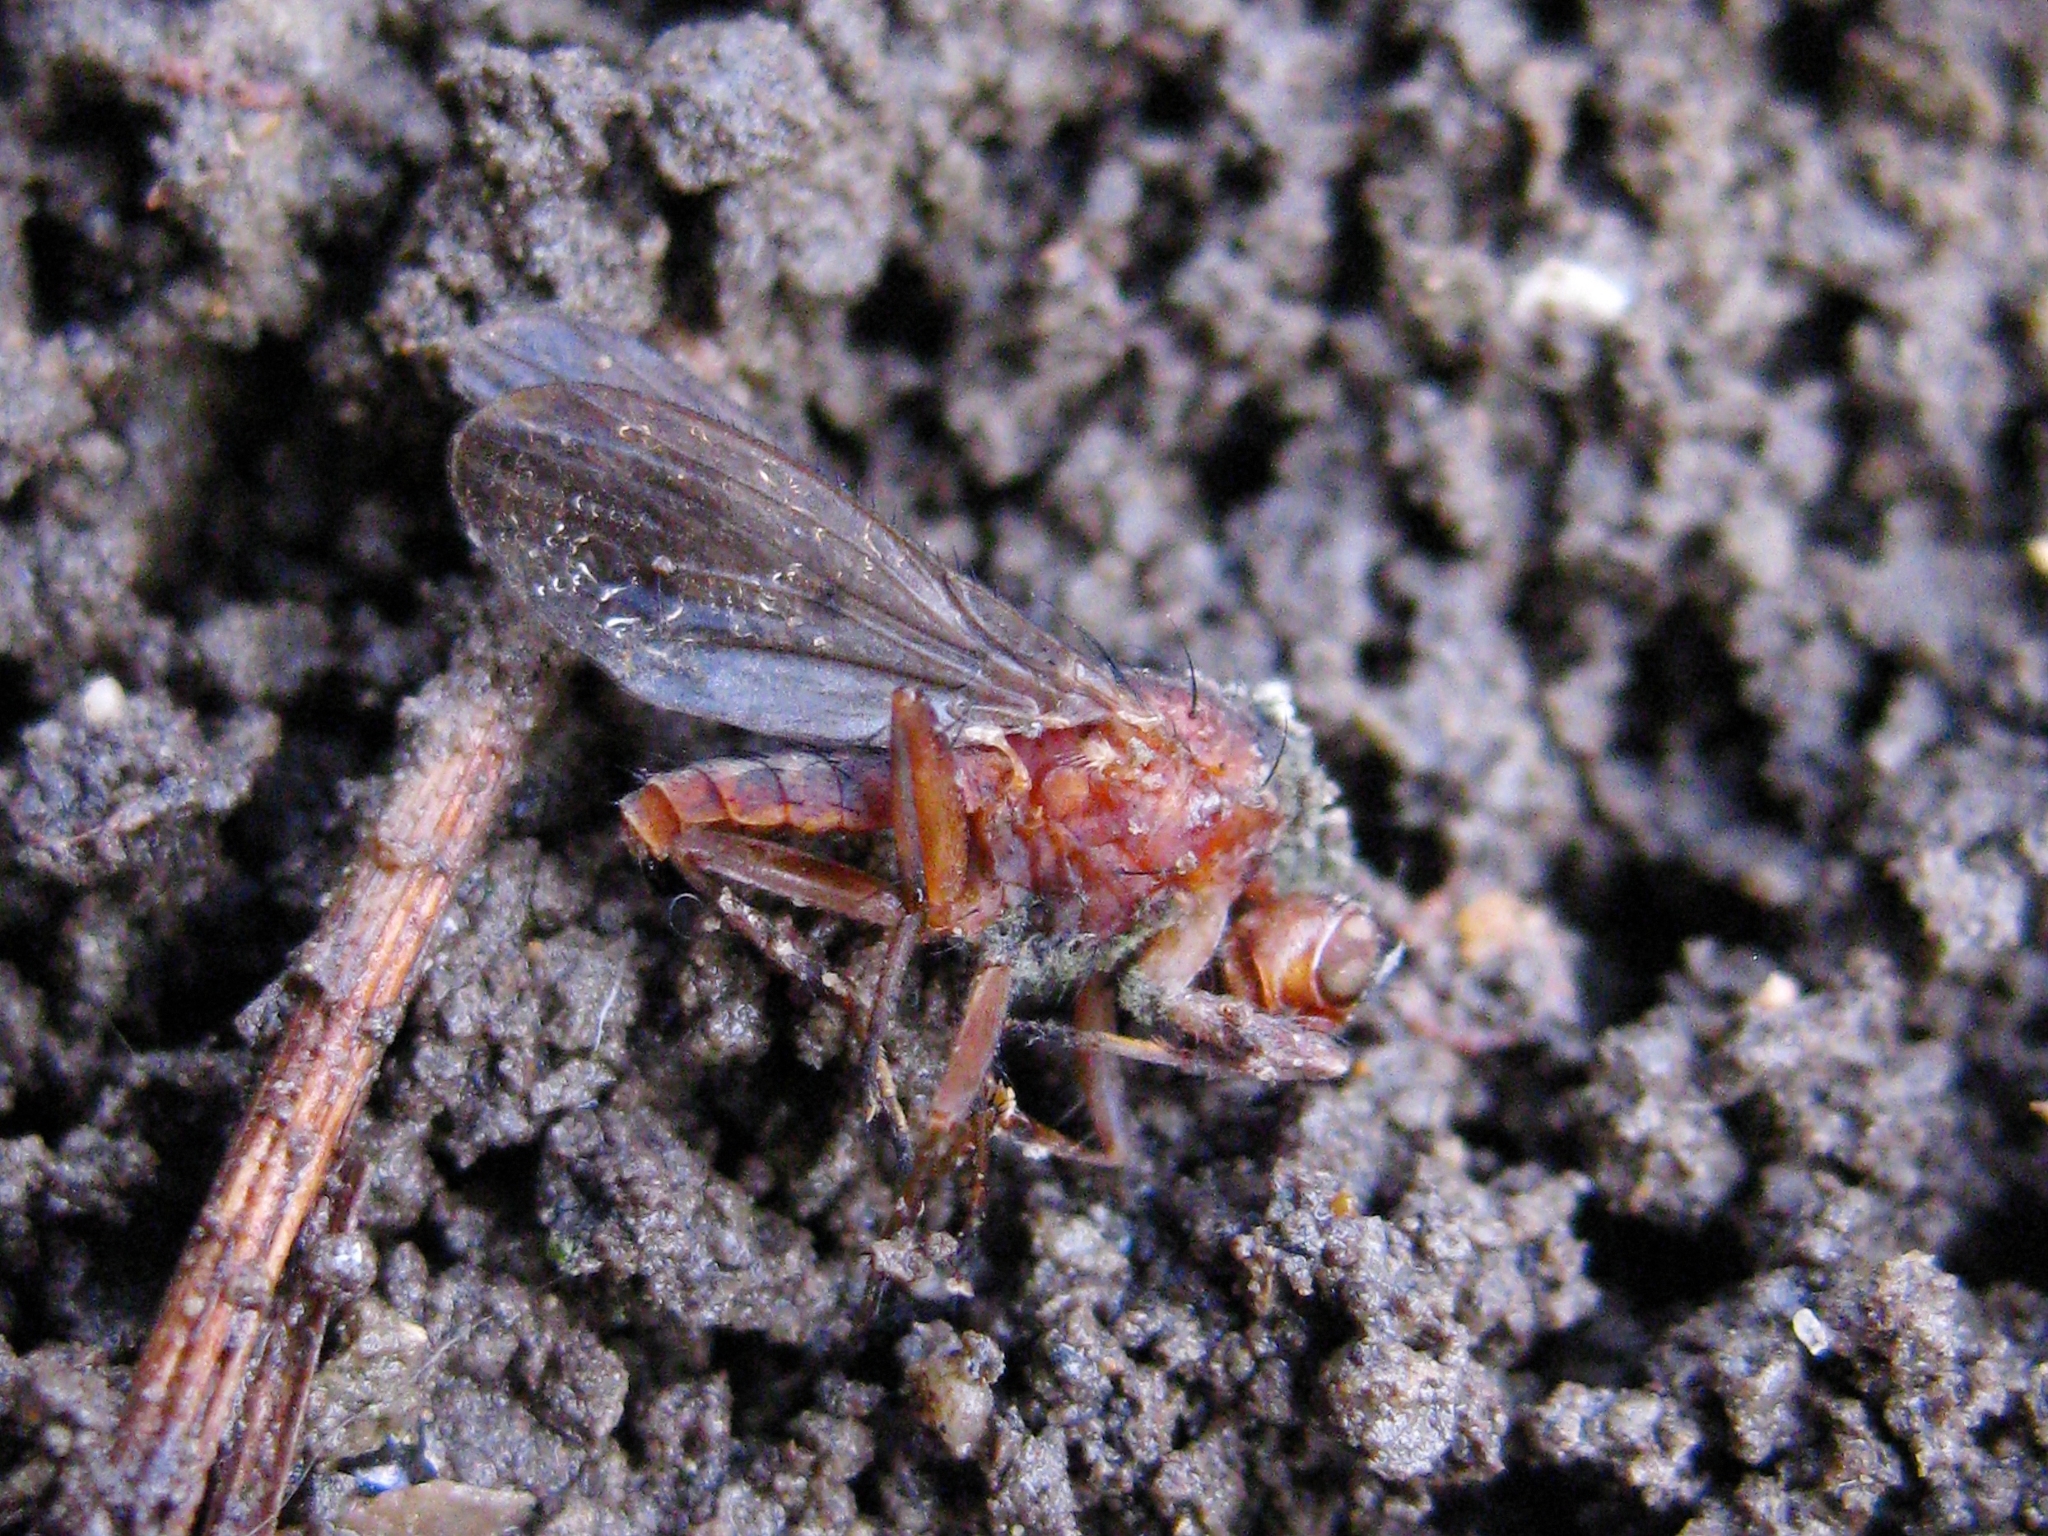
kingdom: Animalia
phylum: Arthropoda
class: Insecta
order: Diptera
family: Heleomyzidae
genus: Suillia
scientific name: Suillia
